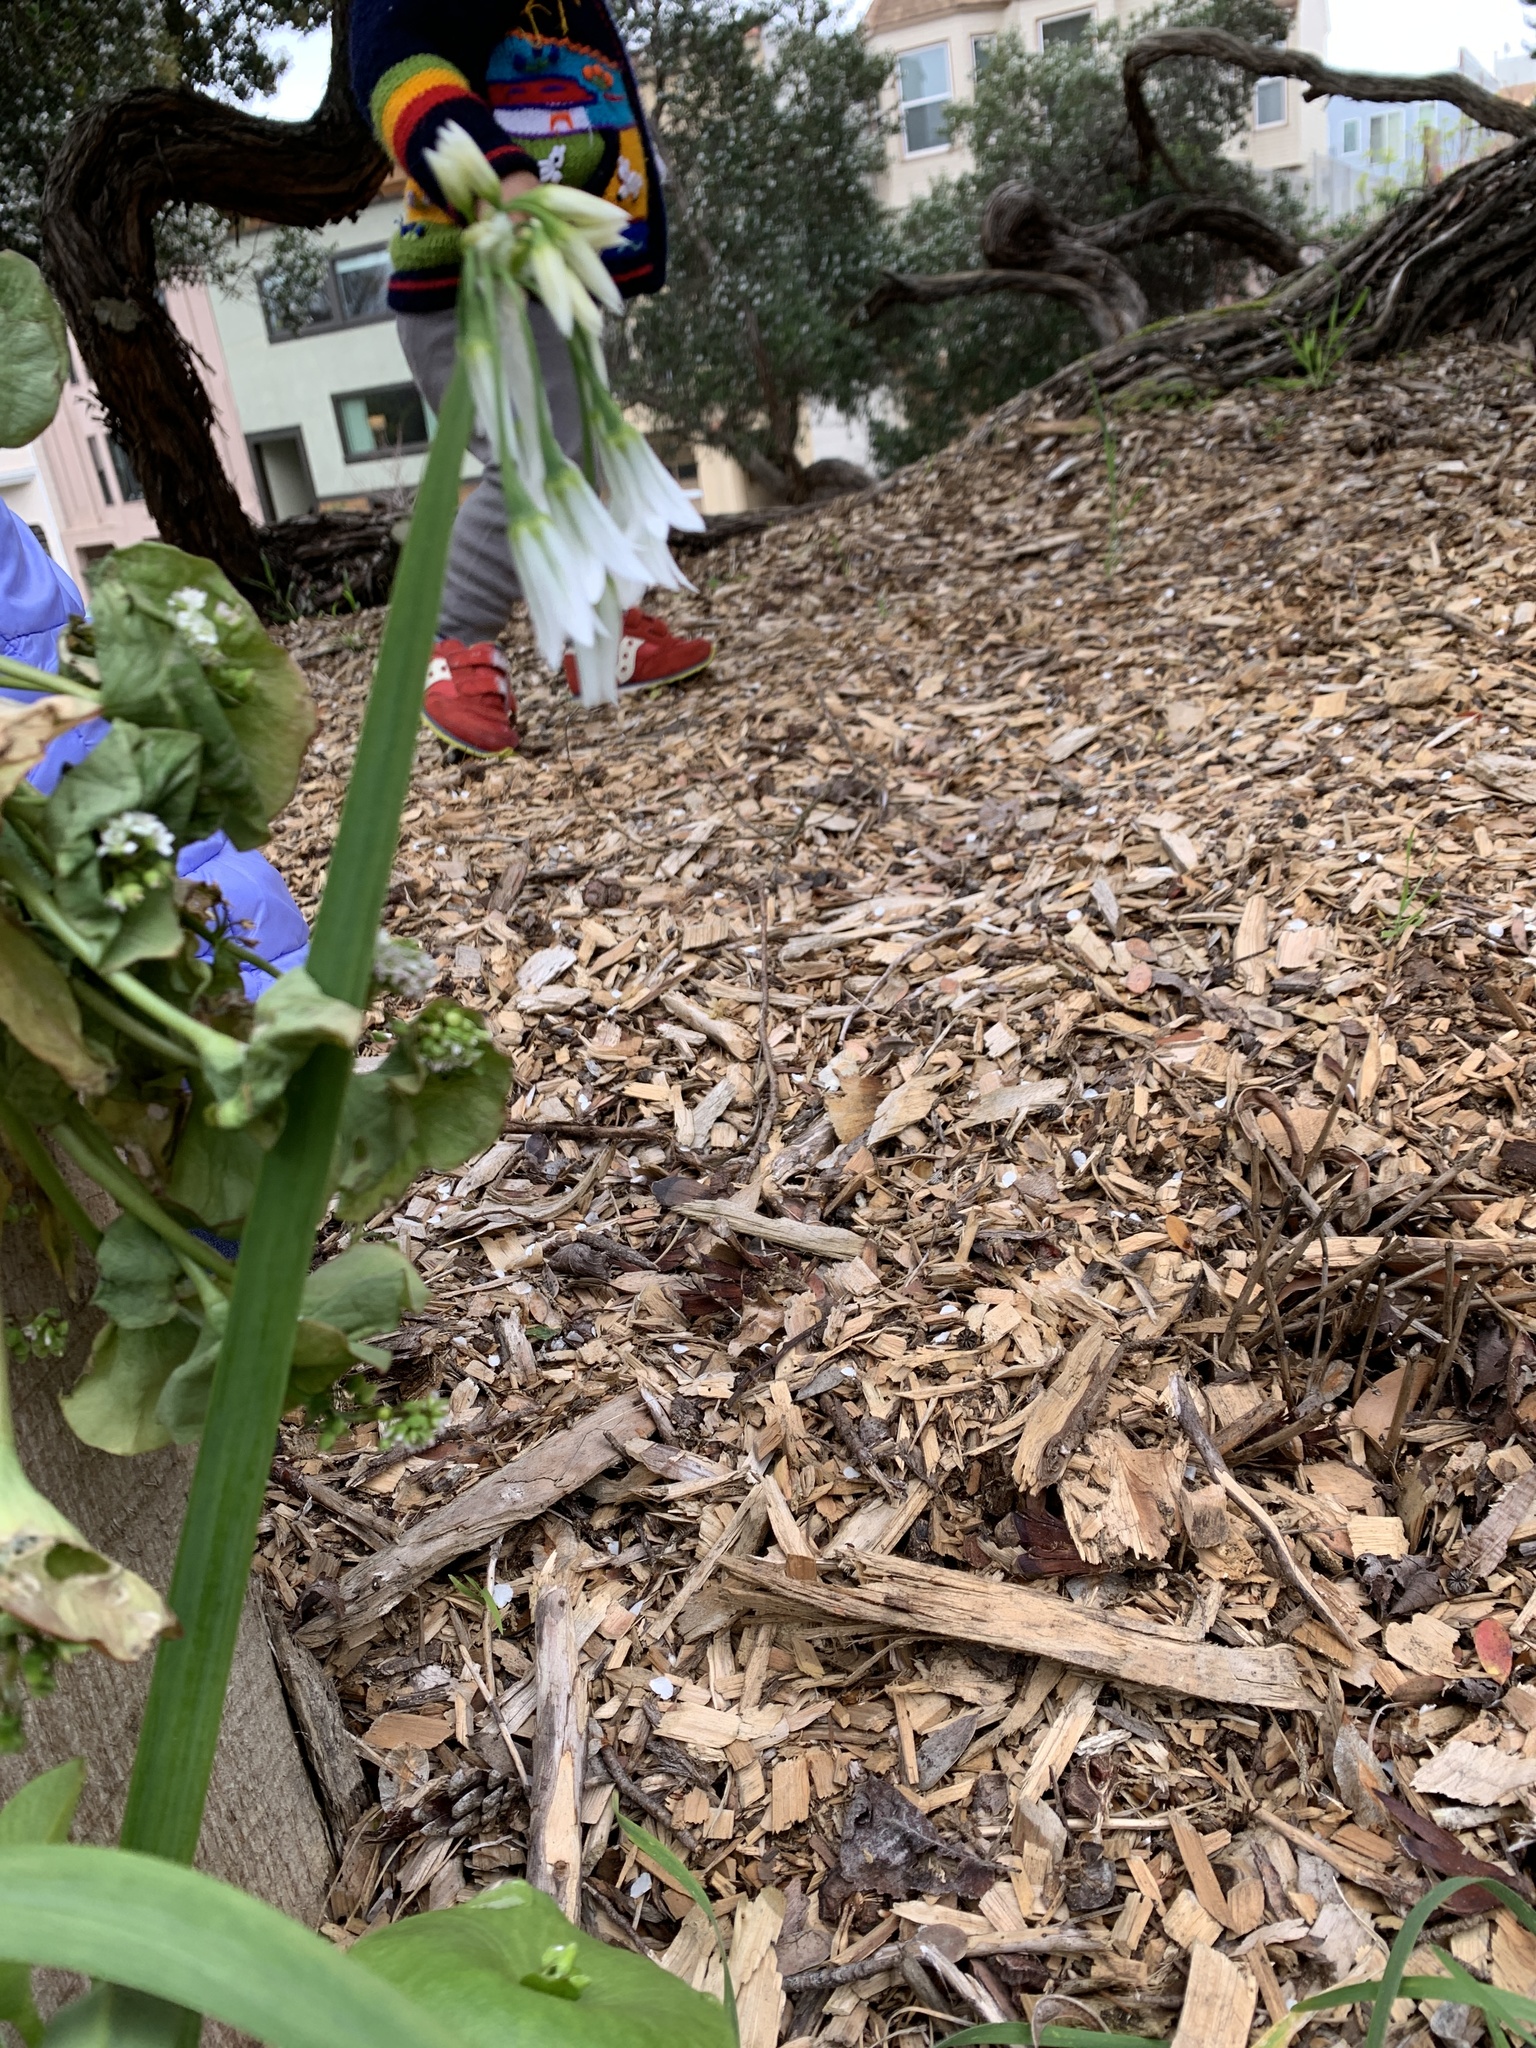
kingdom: Plantae
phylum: Tracheophyta
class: Liliopsida
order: Asparagales
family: Amaryllidaceae
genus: Allium
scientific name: Allium triquetrum
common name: Three-cornered garlic
